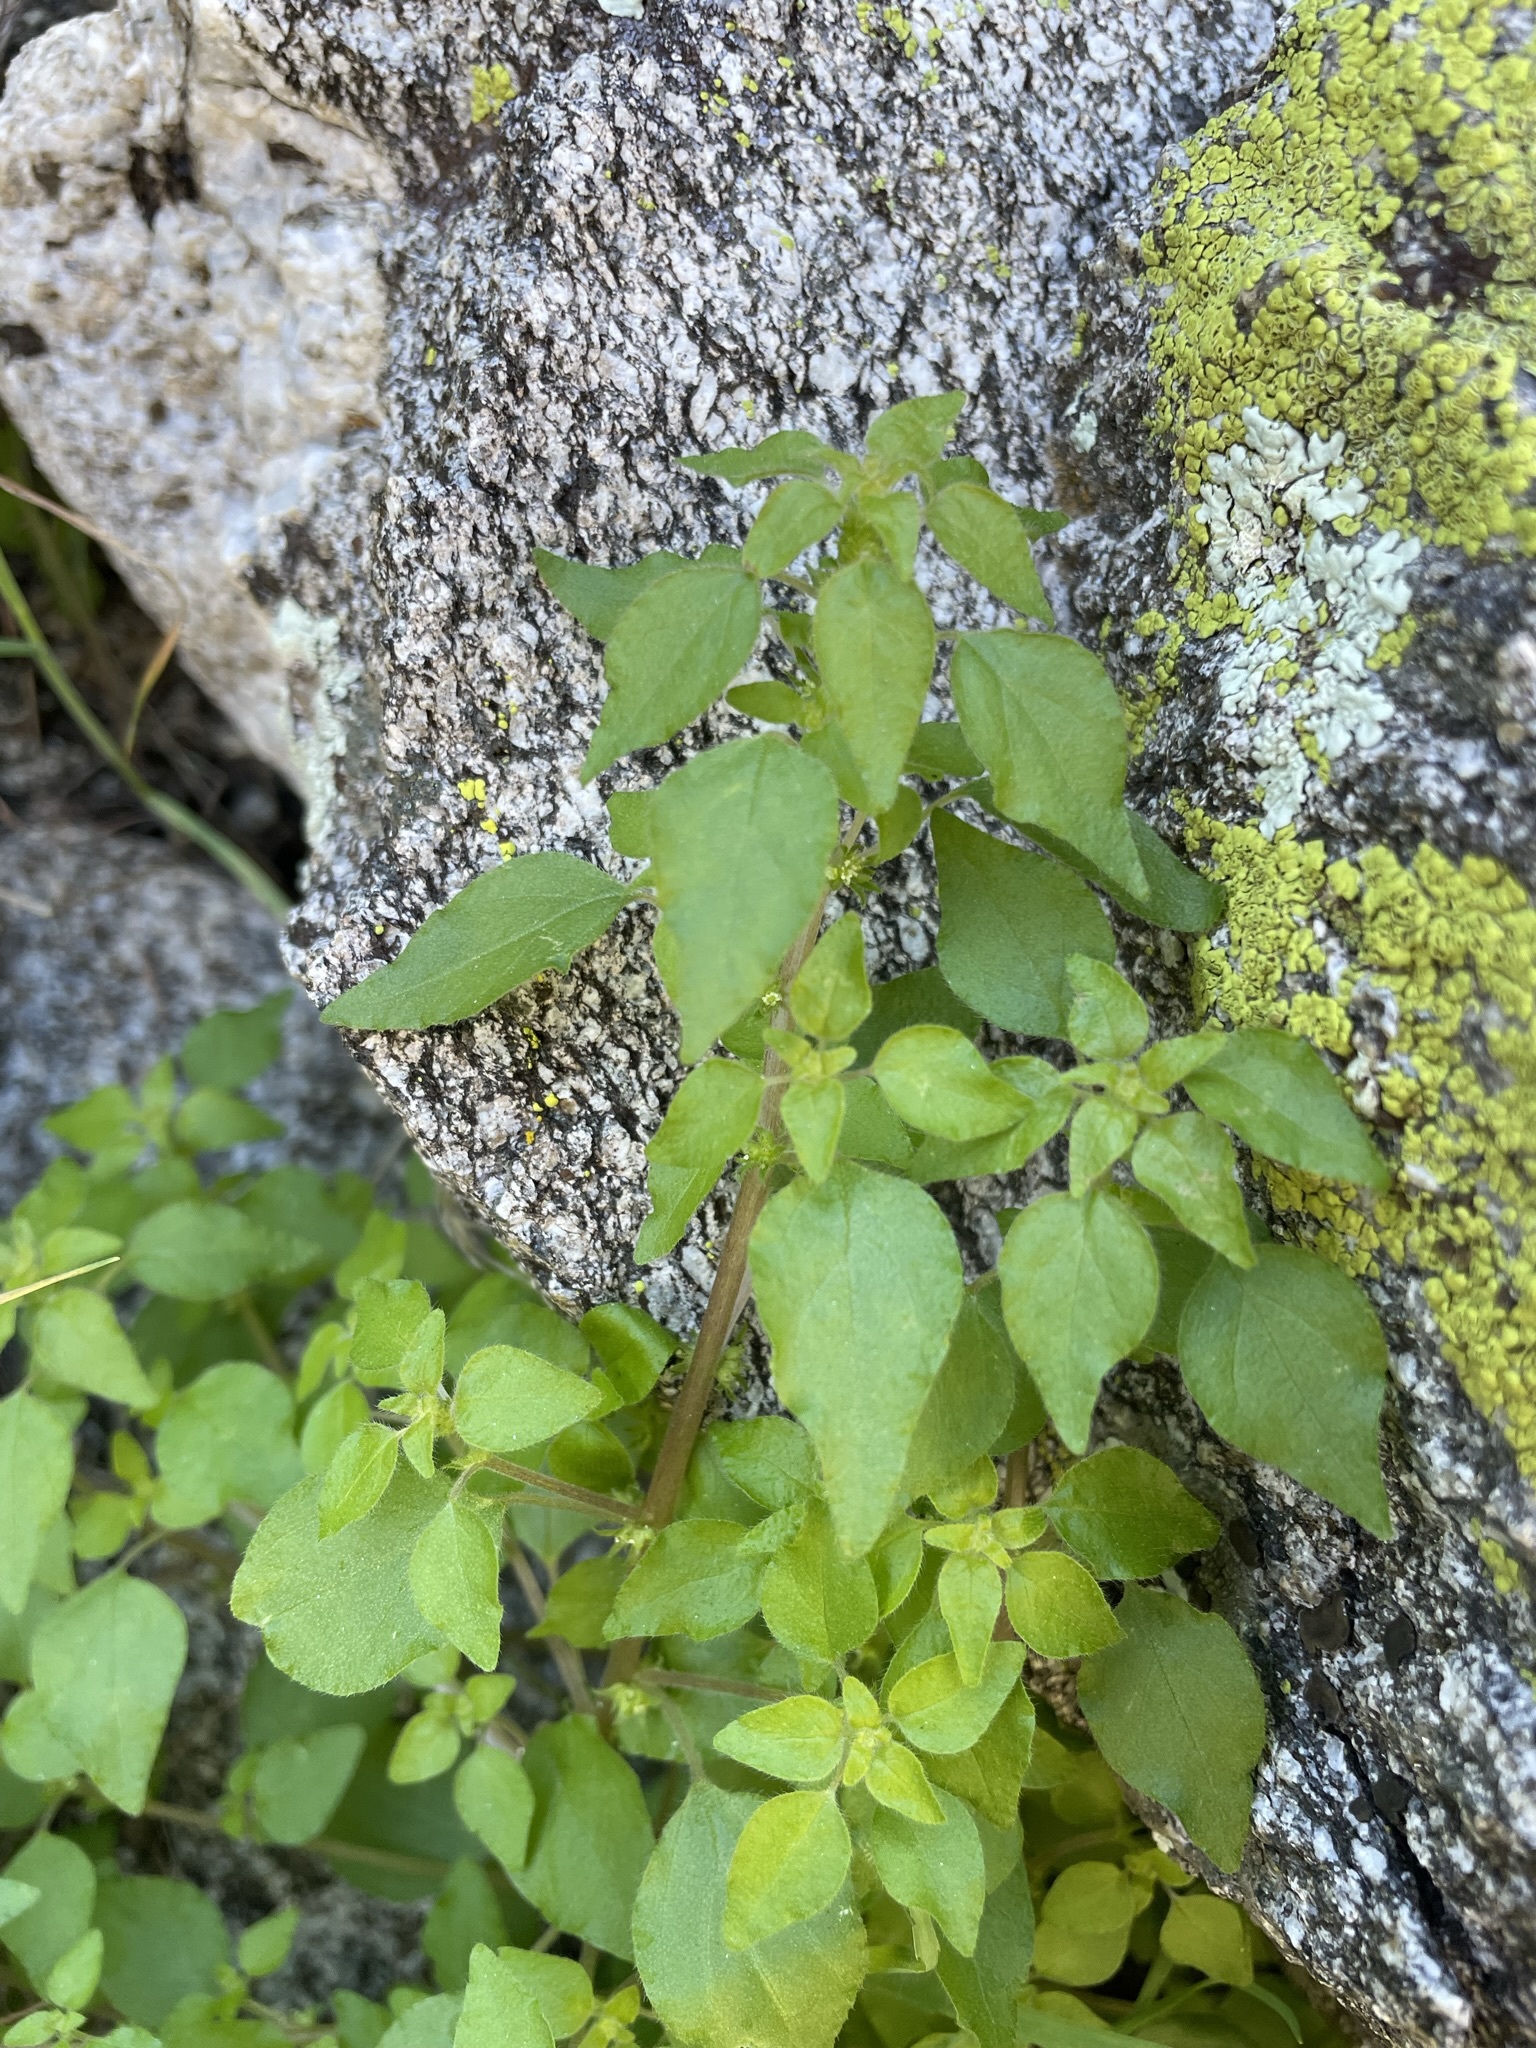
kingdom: Plantae
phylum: Tracheophyta
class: Magnoliopsida
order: Rosales
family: Urticaceae
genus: Parietaria
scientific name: Parietaria hespera
